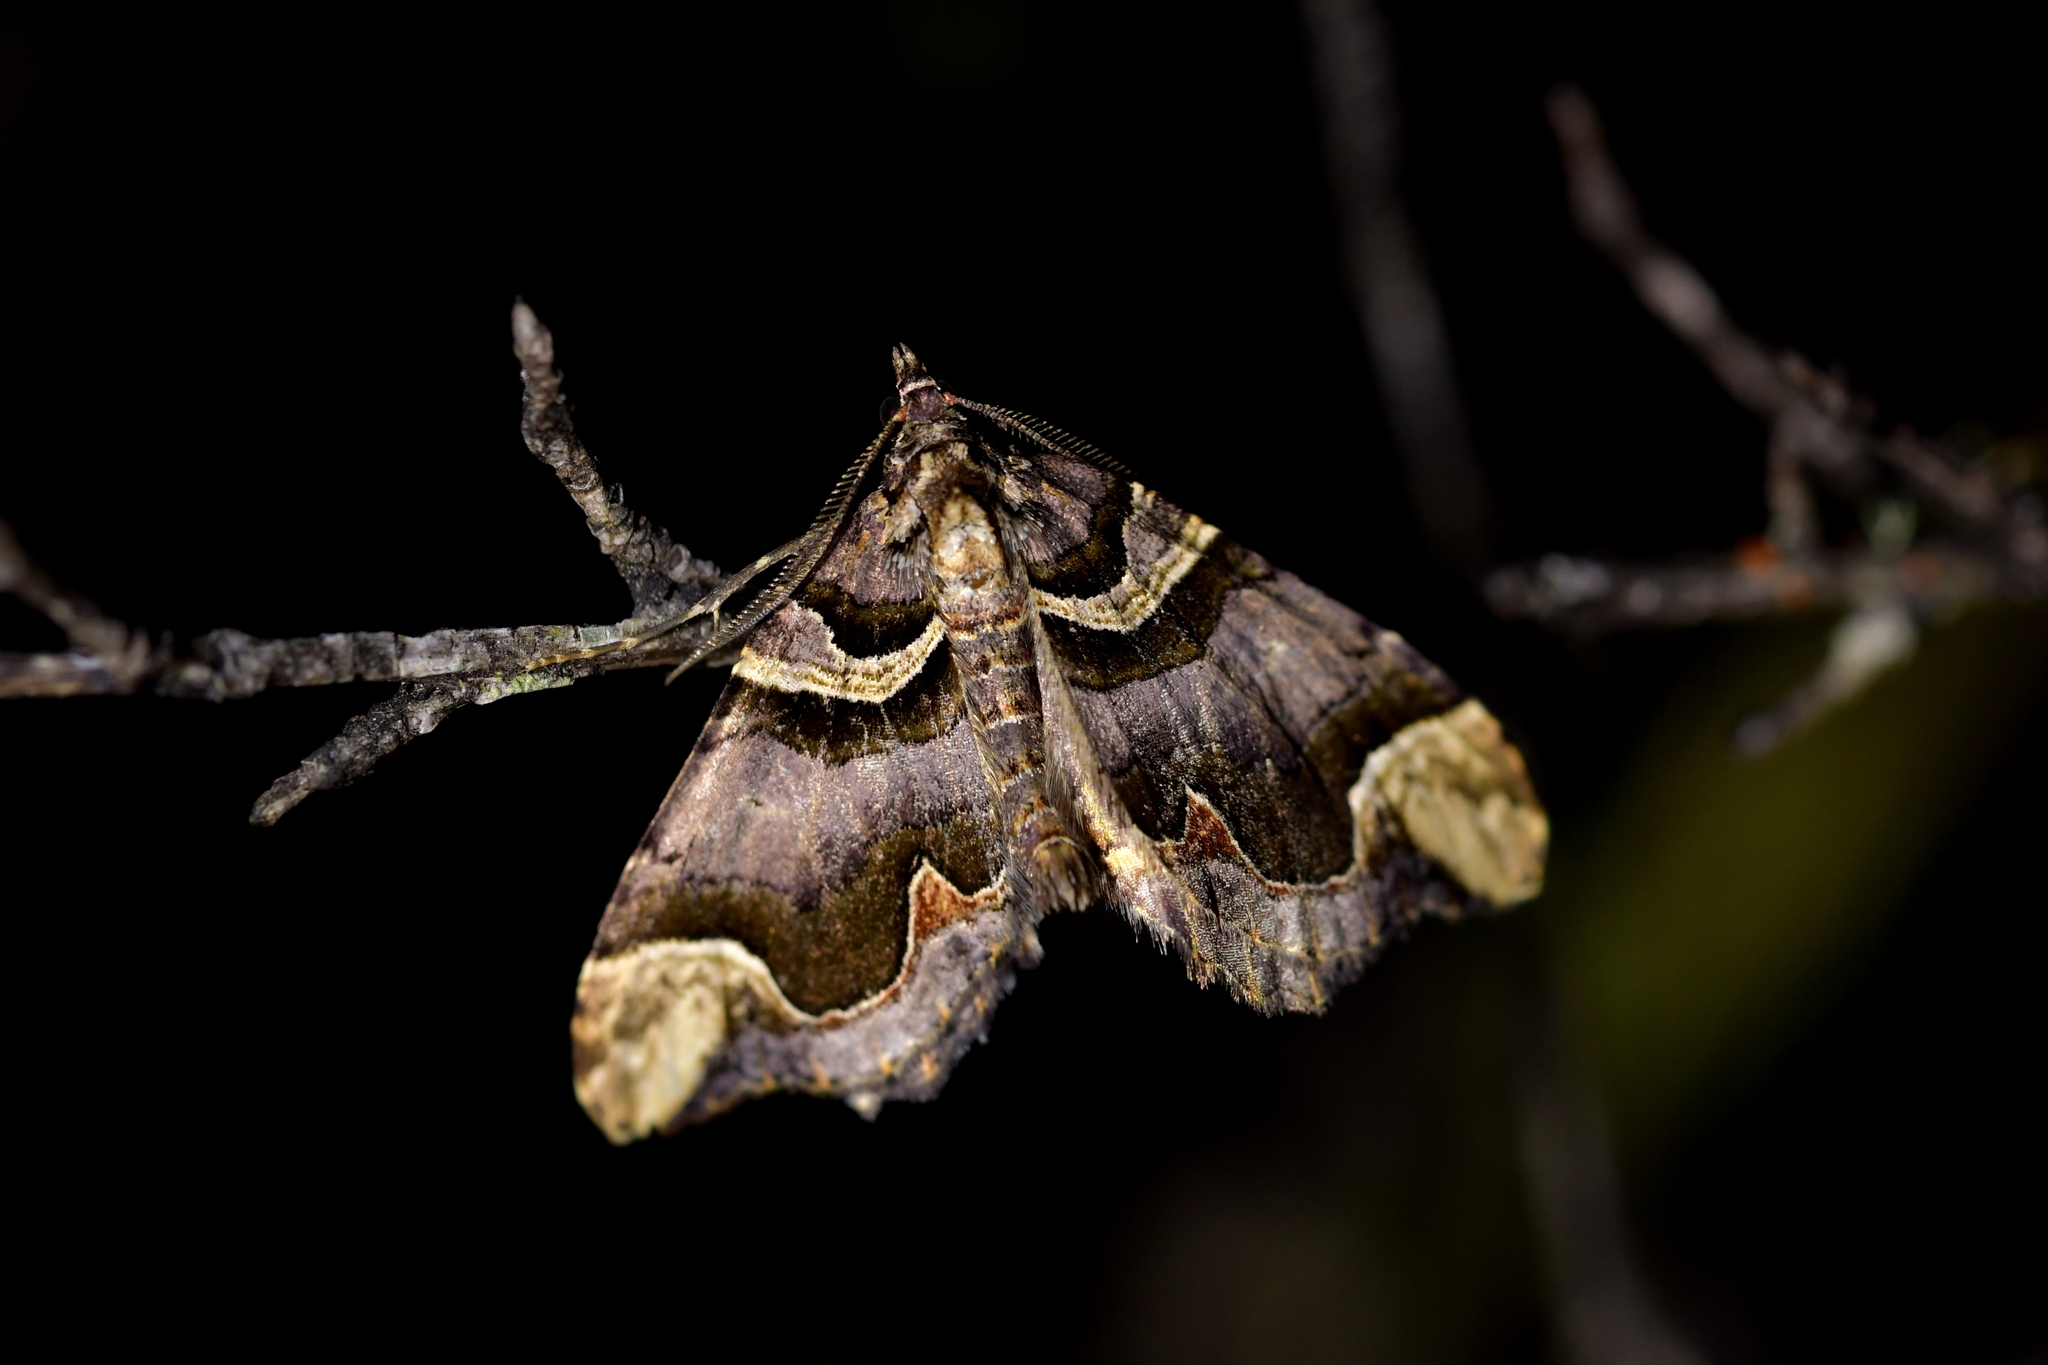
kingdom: Animalia
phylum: Arthropoda
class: Insecta
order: Lepidoptera
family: Geometridae
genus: Asaphodes
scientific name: Asaphodes chlamydota
